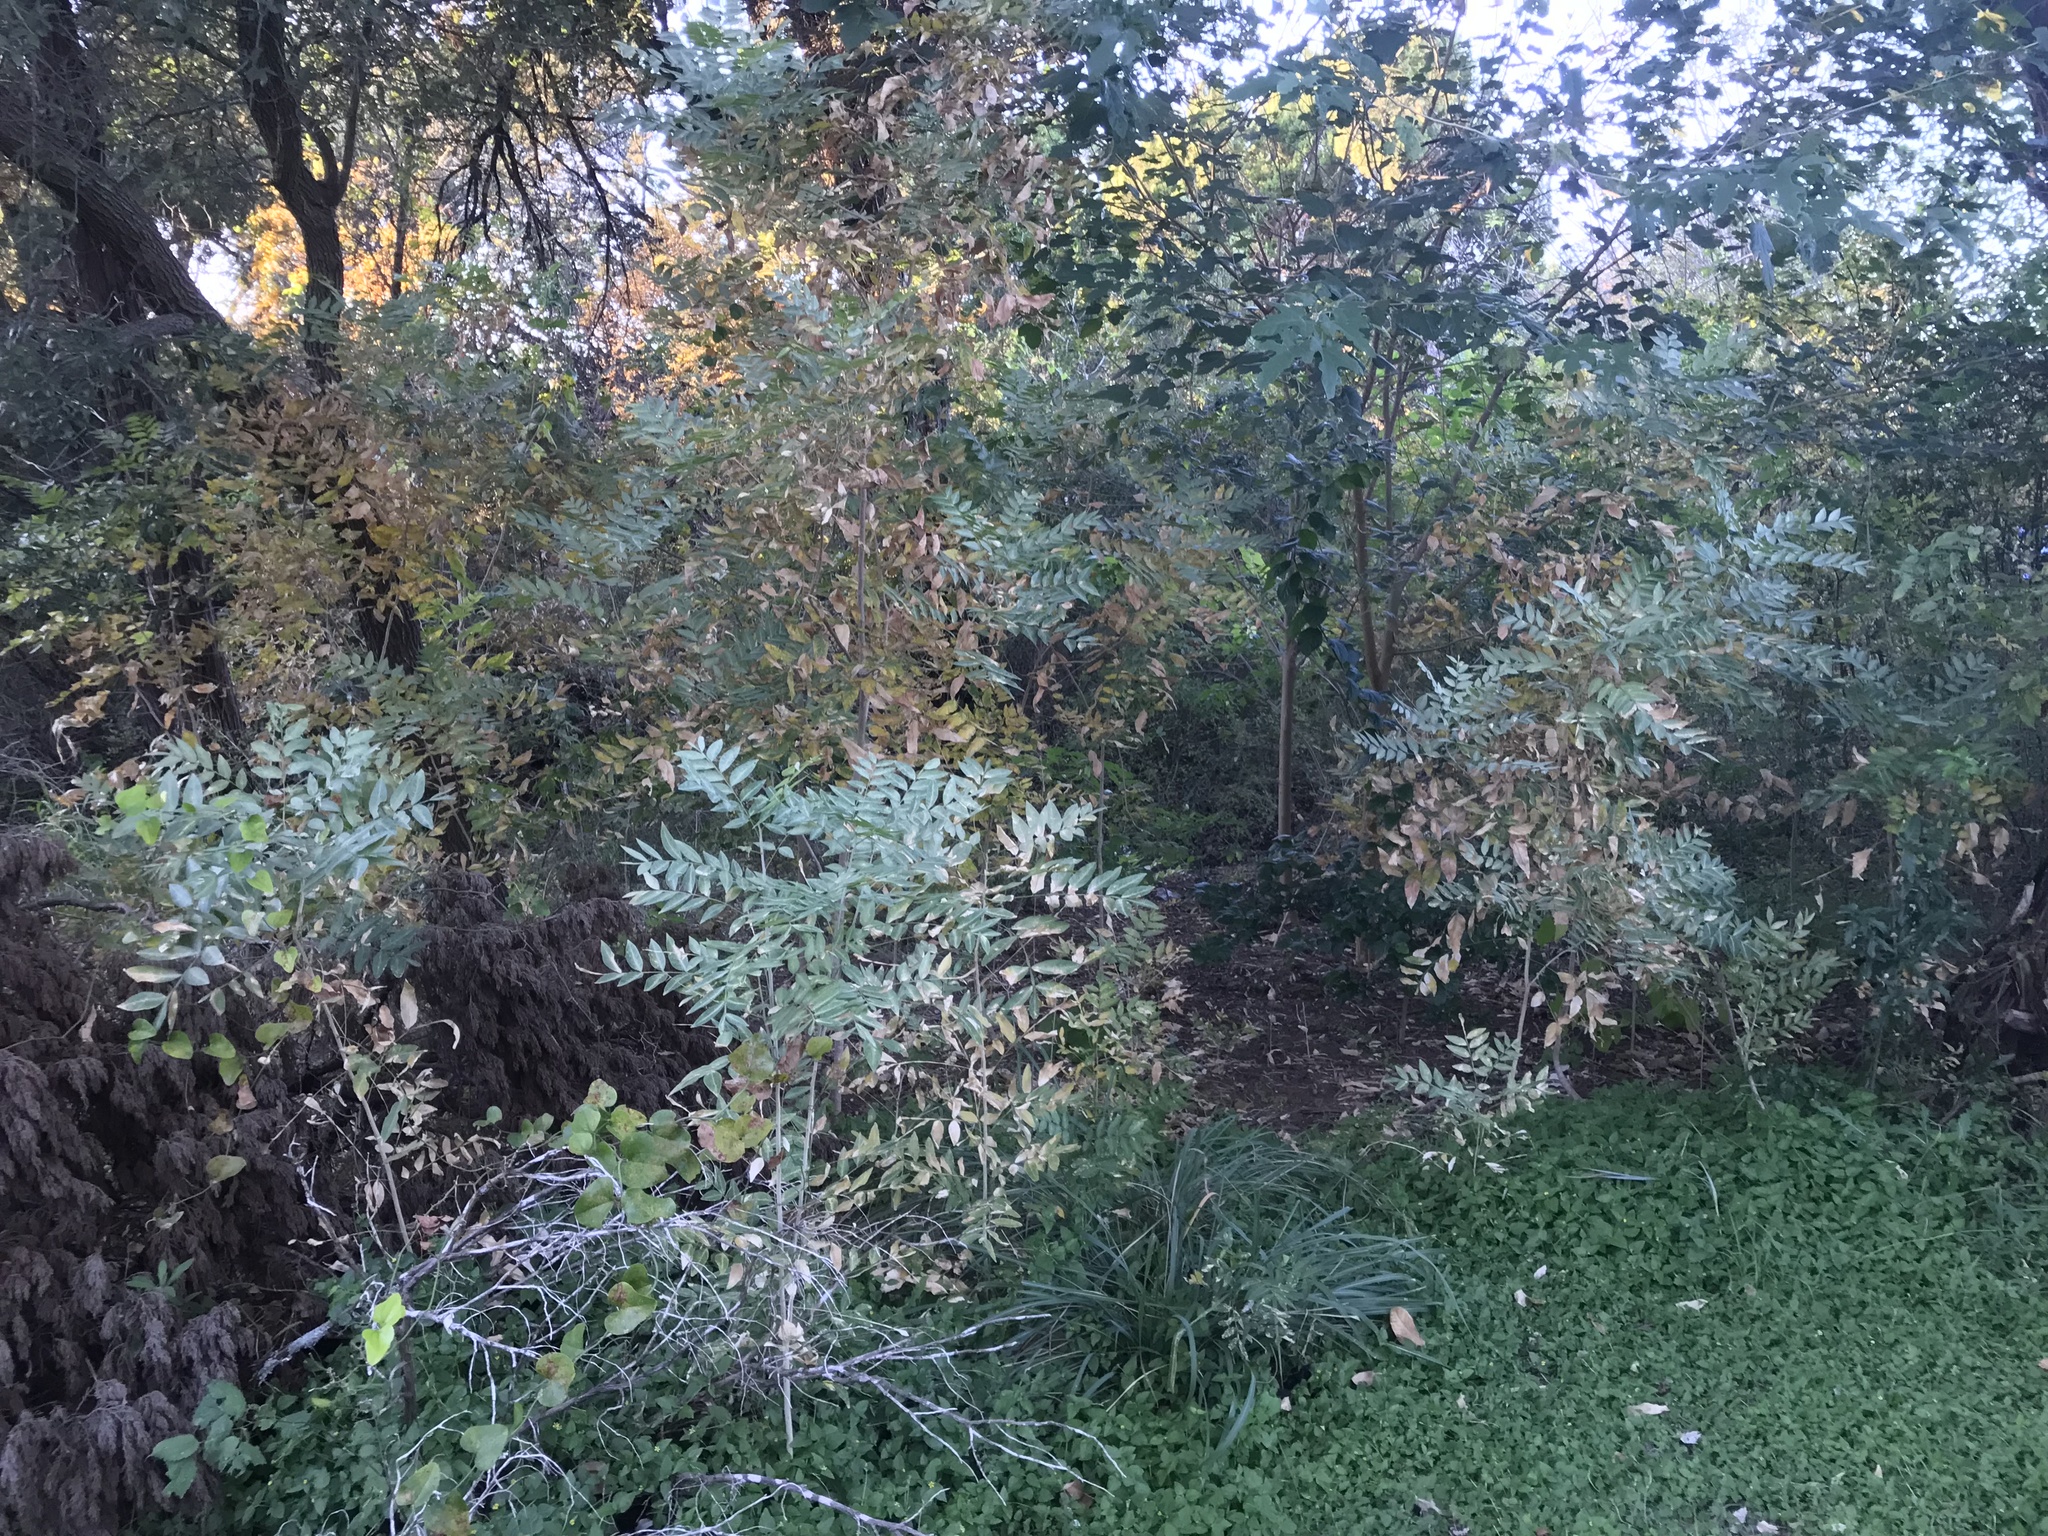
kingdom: Plantae
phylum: Tracheophyta
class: Magnoliopsida
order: Sapindales
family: Sapindaceae
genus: Sapindus
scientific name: Sapindus drummondii
